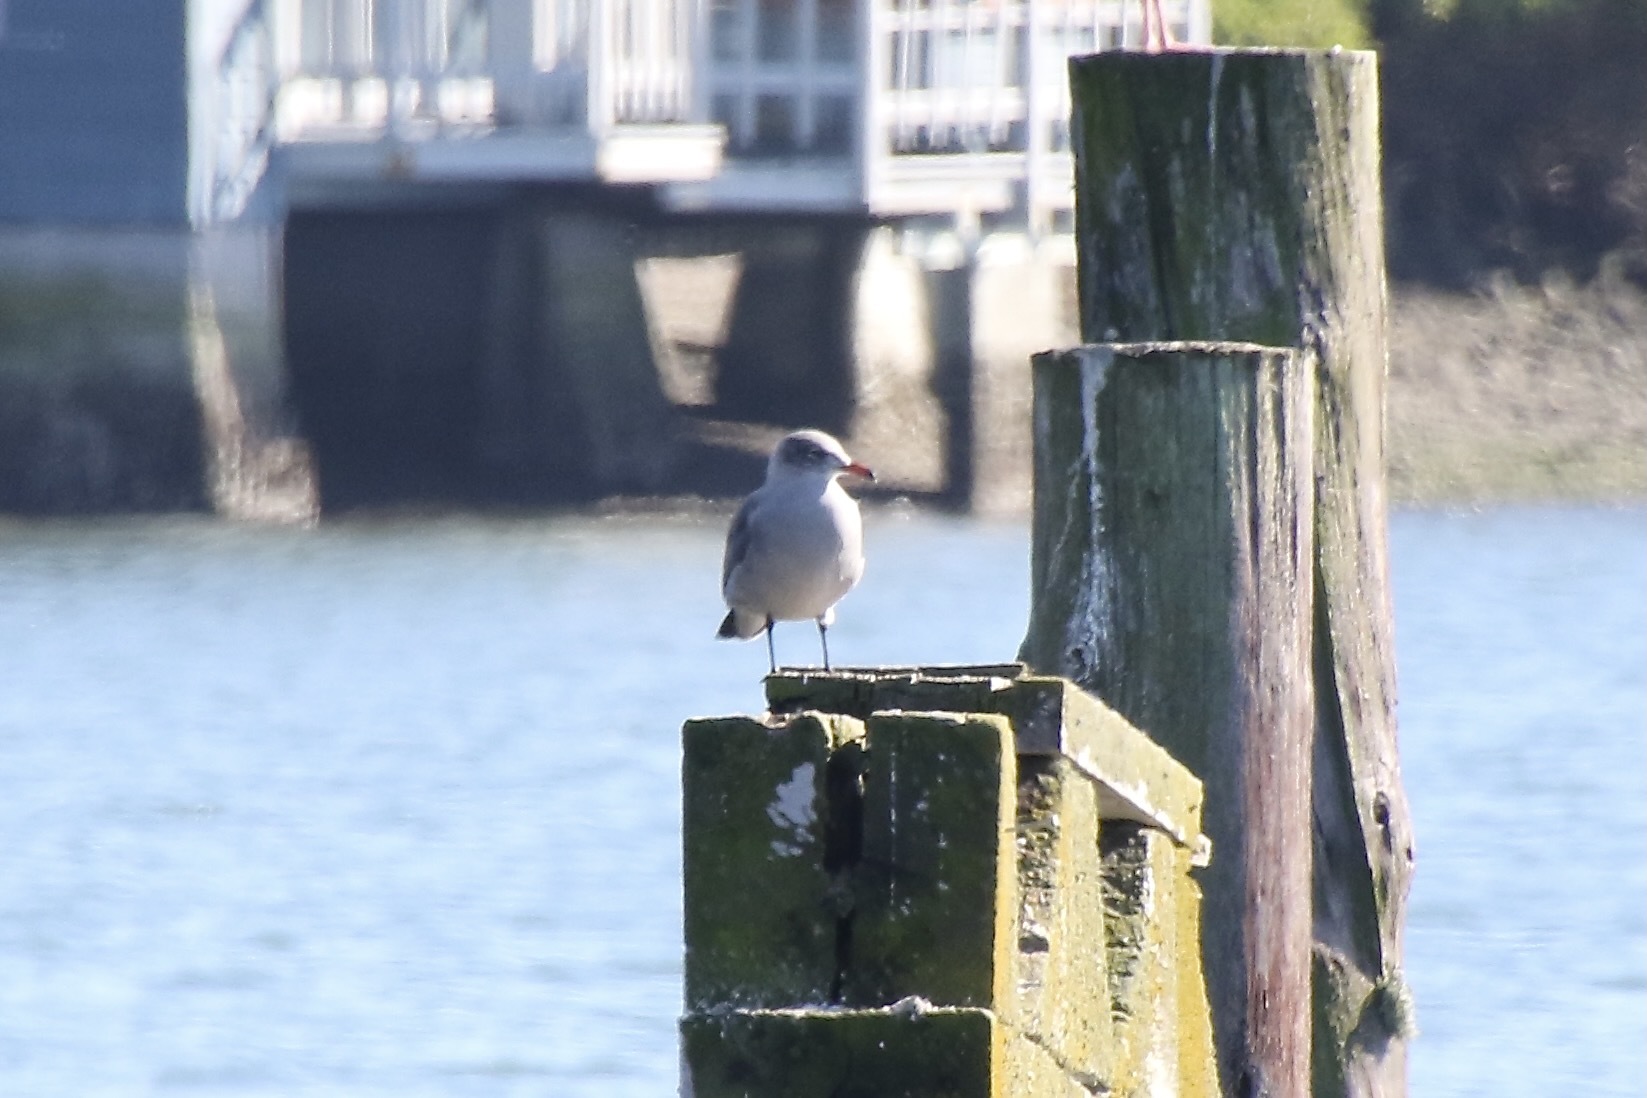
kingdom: Animalia
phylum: Chordata
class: Aves
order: Charadriiformes
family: Laridae
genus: Larus
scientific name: Larus heermanni
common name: Heermann's gull
